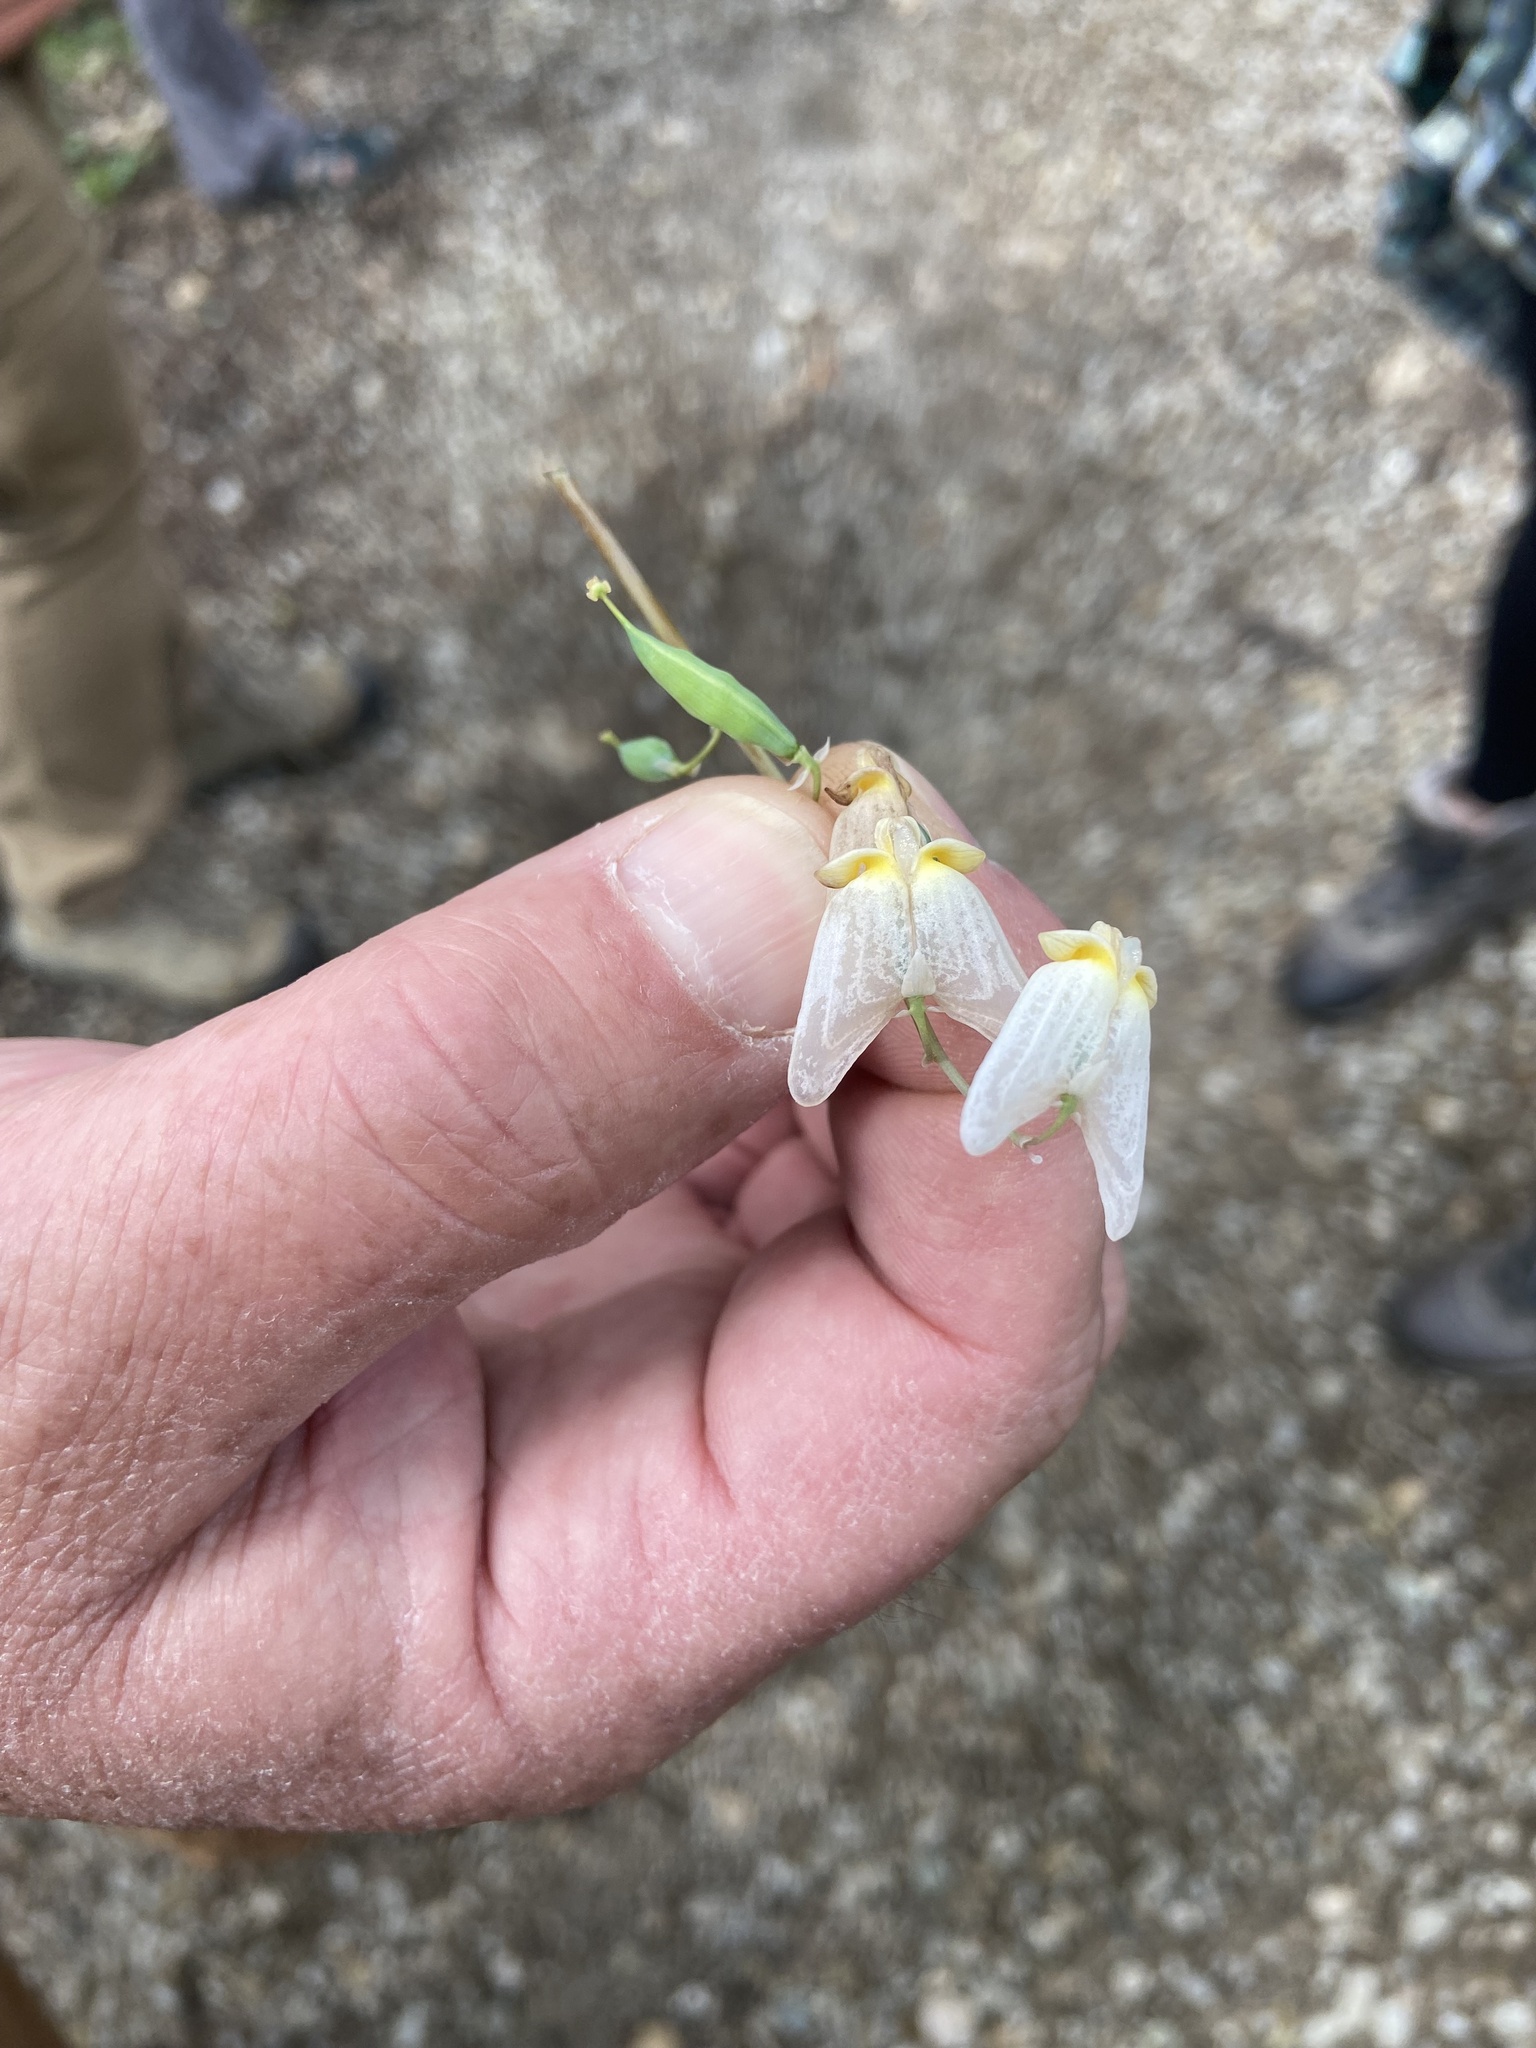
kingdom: Plantae
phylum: Tracheophyta
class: Magnoliopsida
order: Ranunculales
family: Papaveraceae
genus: Dicentra
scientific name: Dicentra cucullaria
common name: Dutchman's breeches
